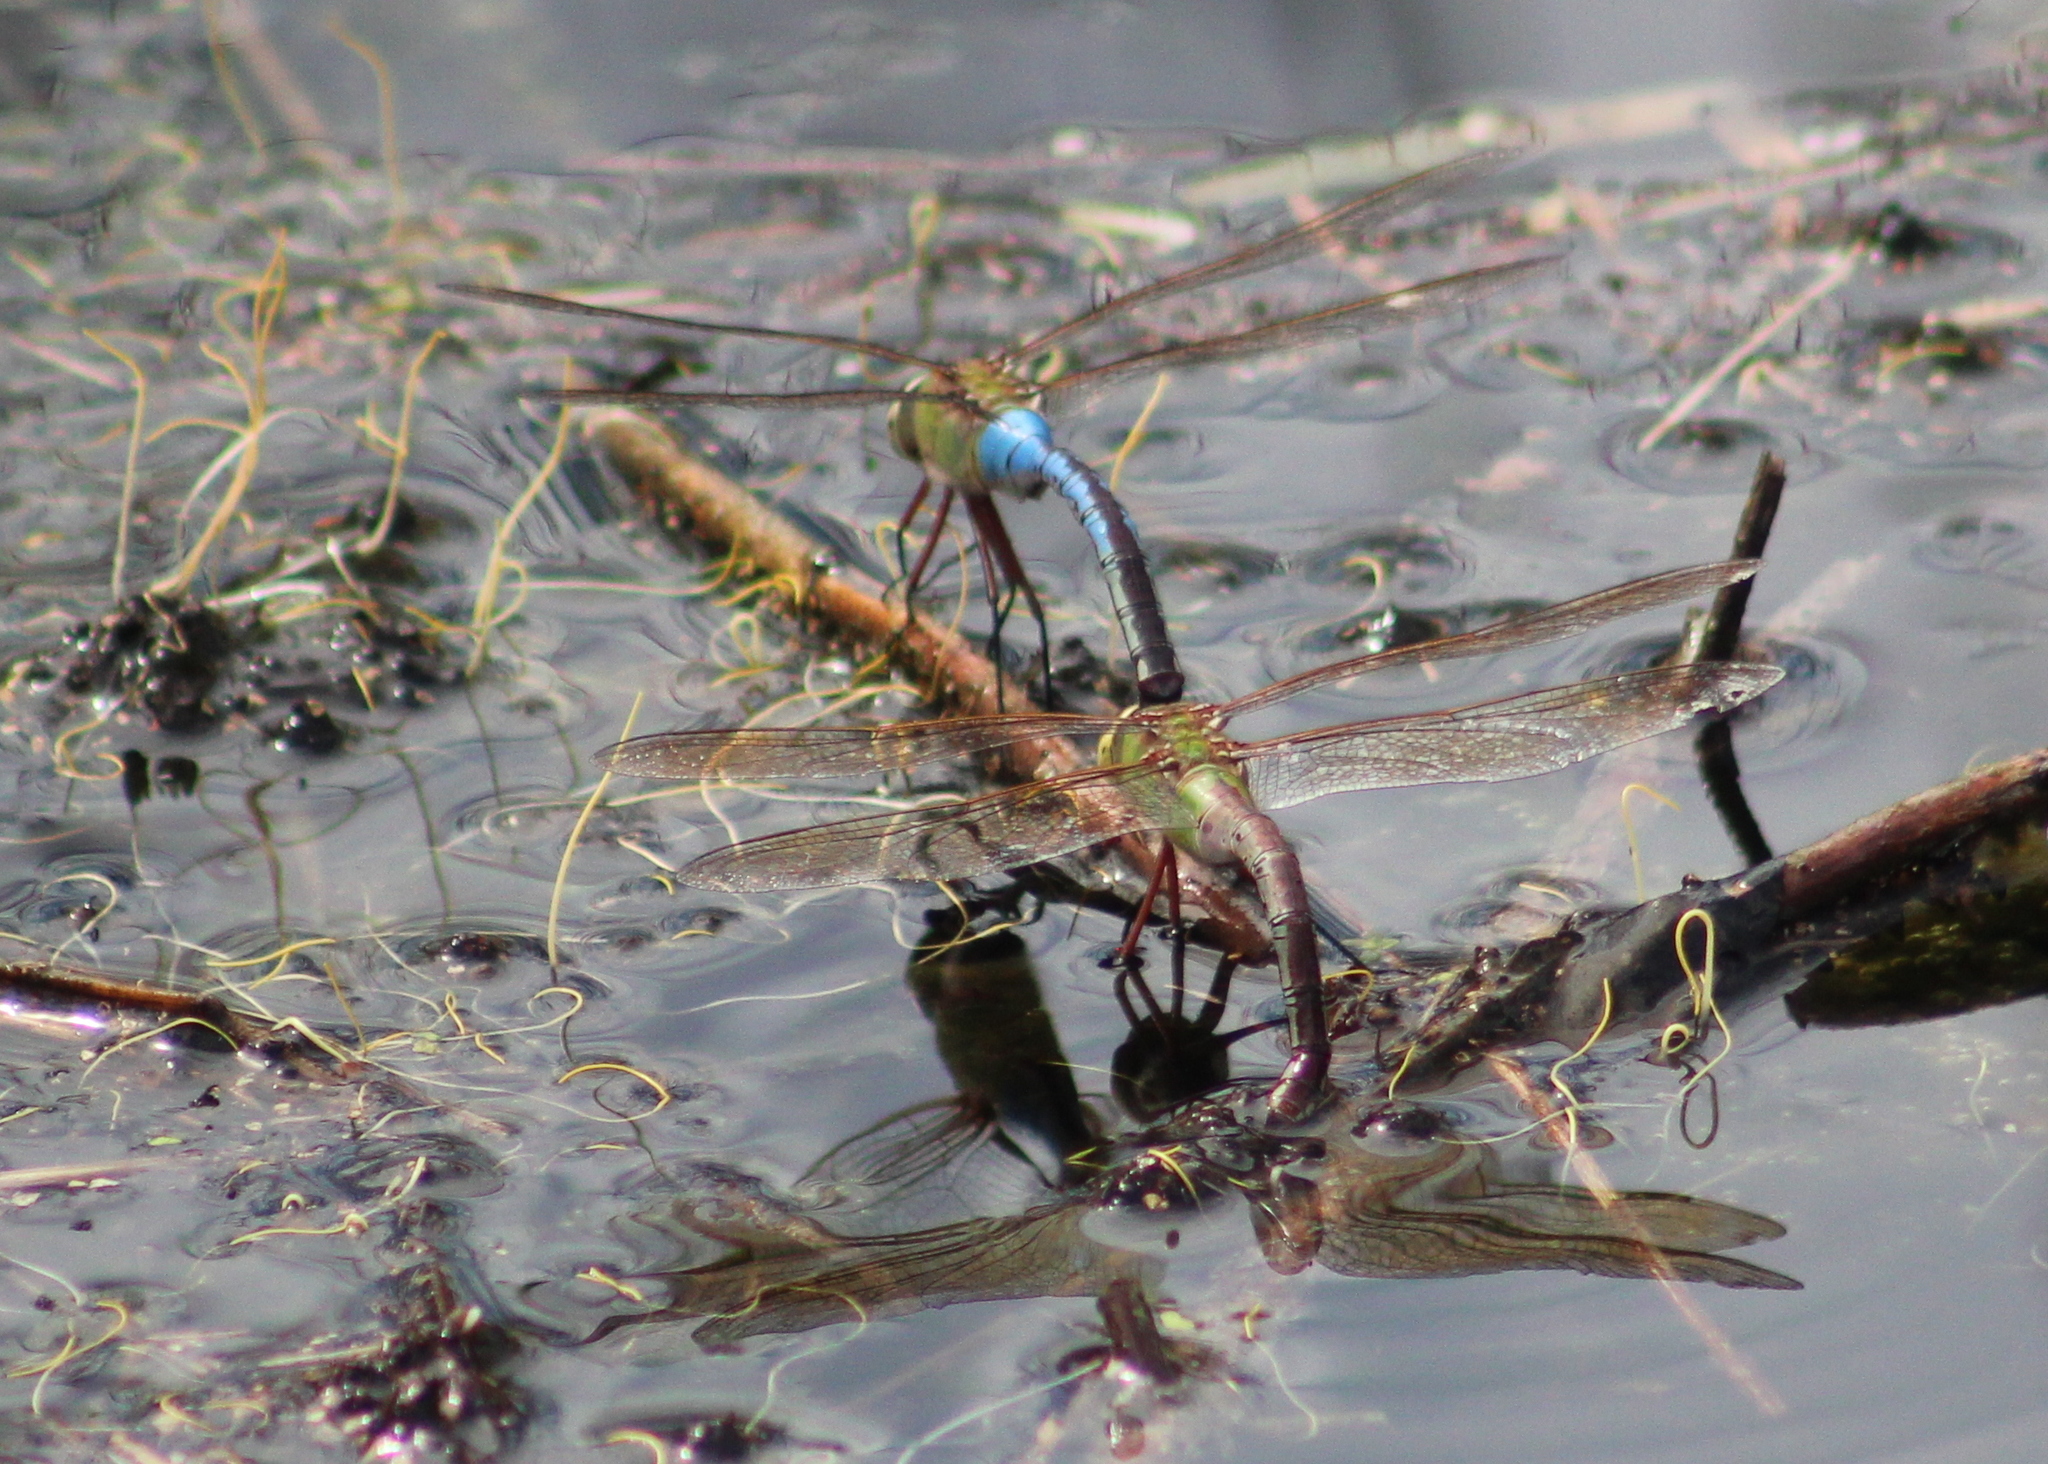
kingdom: Animalia
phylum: Arthropoda
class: Insecta
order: Odonata
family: Aeshnidae
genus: Anax
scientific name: Anax junius
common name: Common green darner
